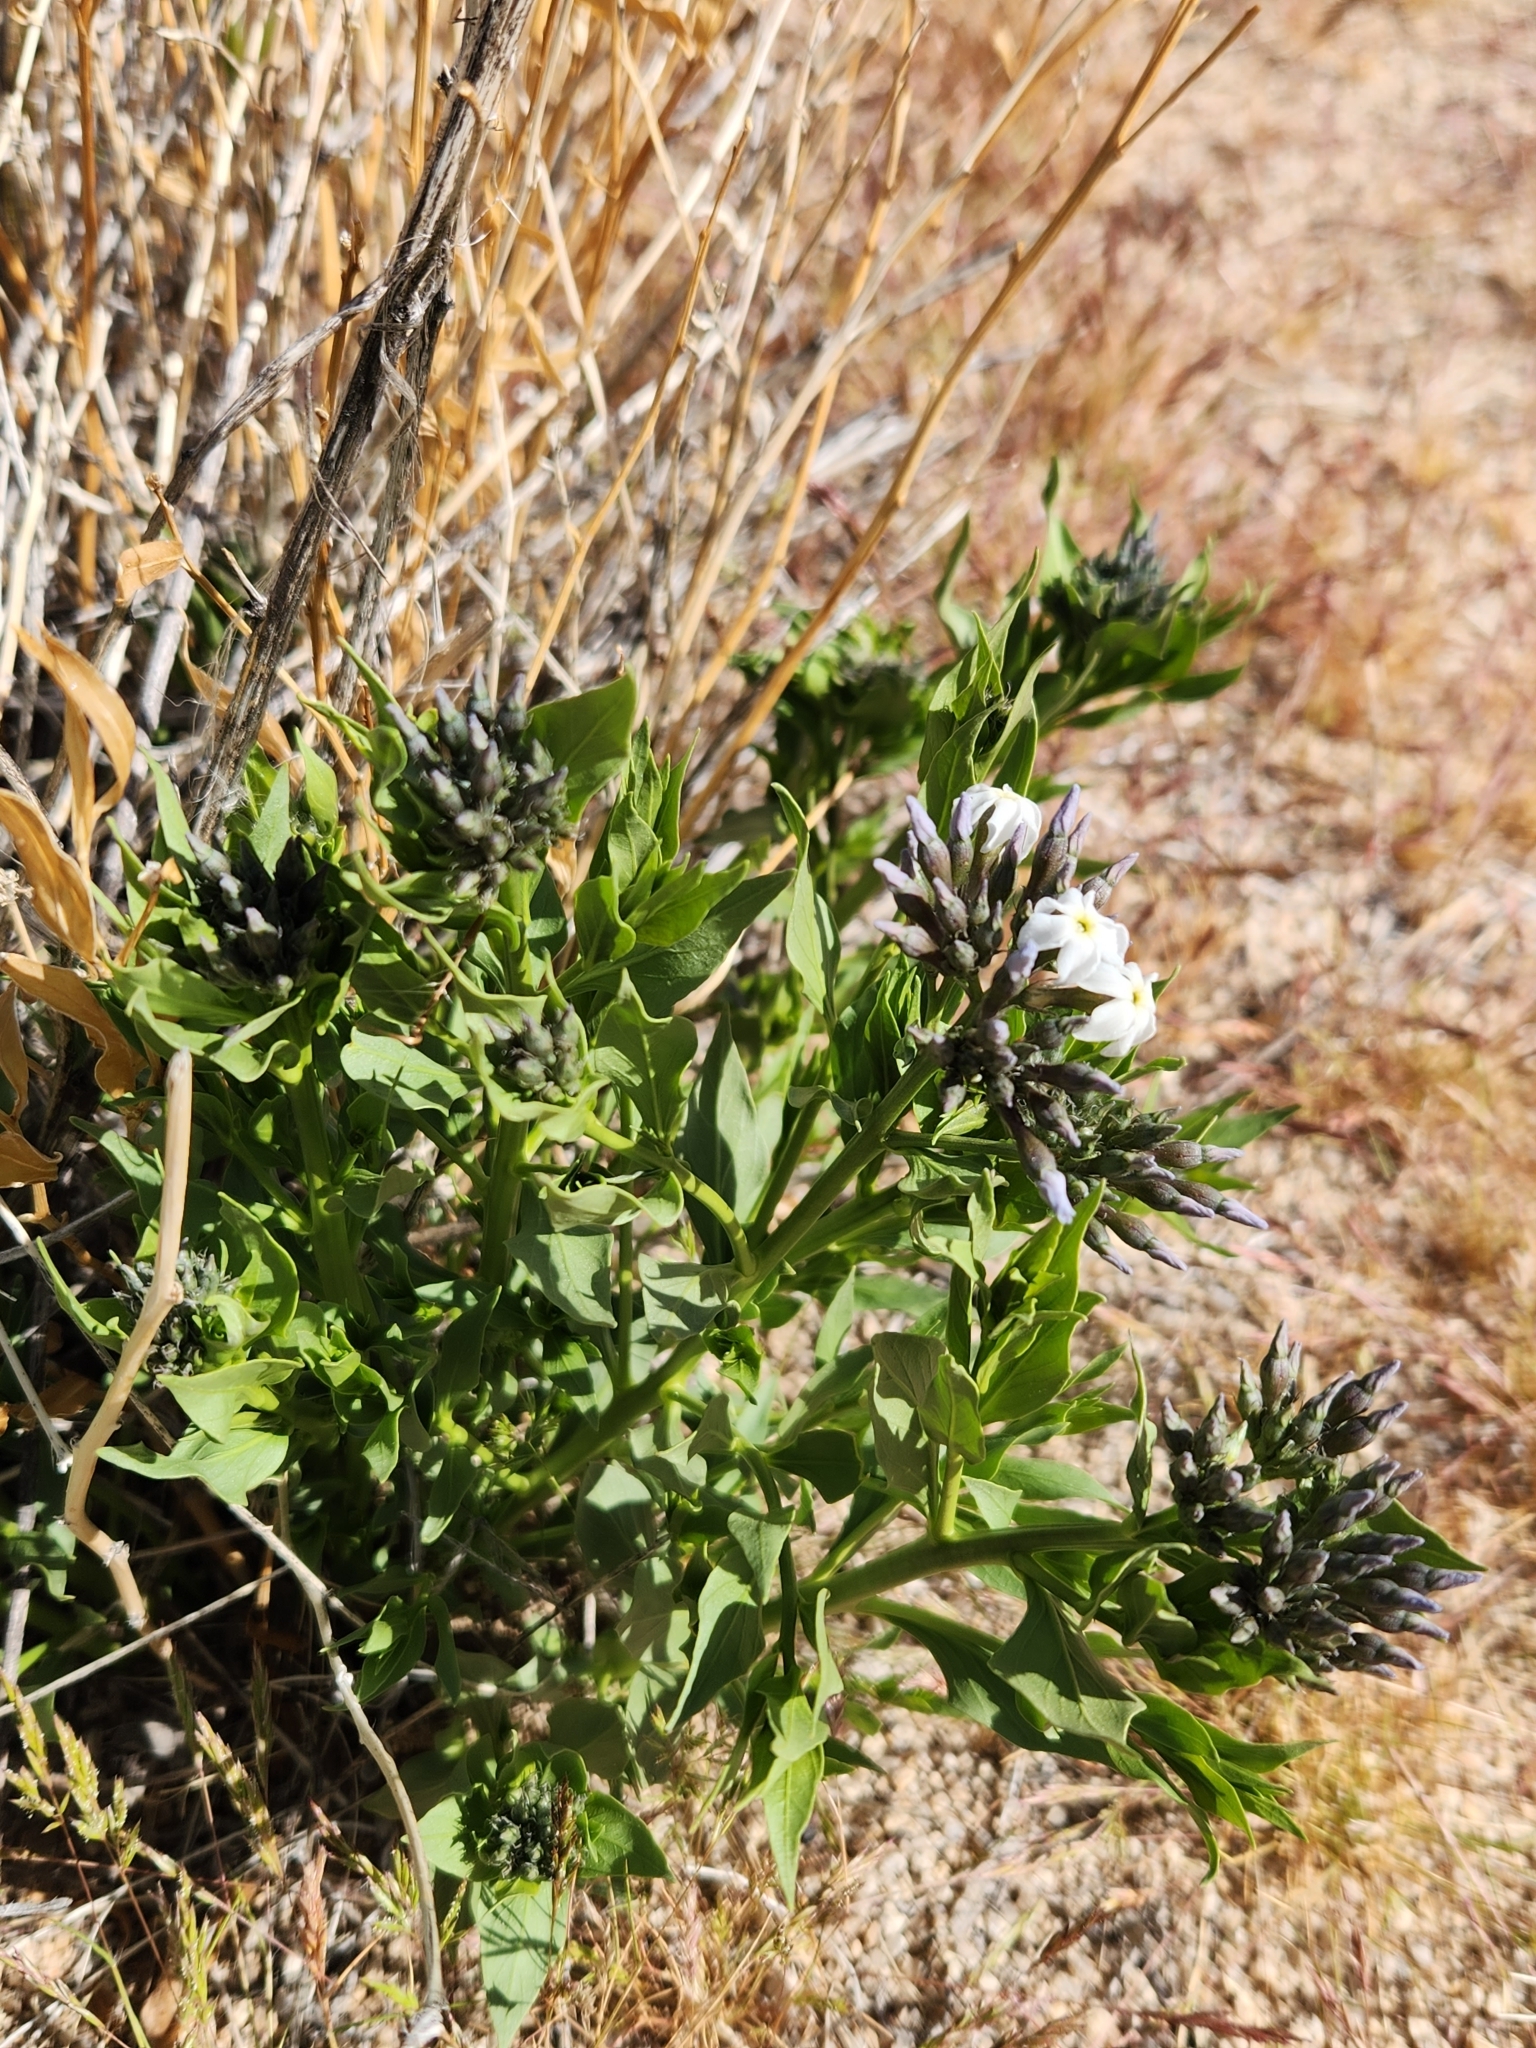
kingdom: Plantae
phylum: Tracheophyta
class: Magnoliopsida
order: Gentianales
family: Apocynaceae
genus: Amsonia
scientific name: Amsonia tomentosa
